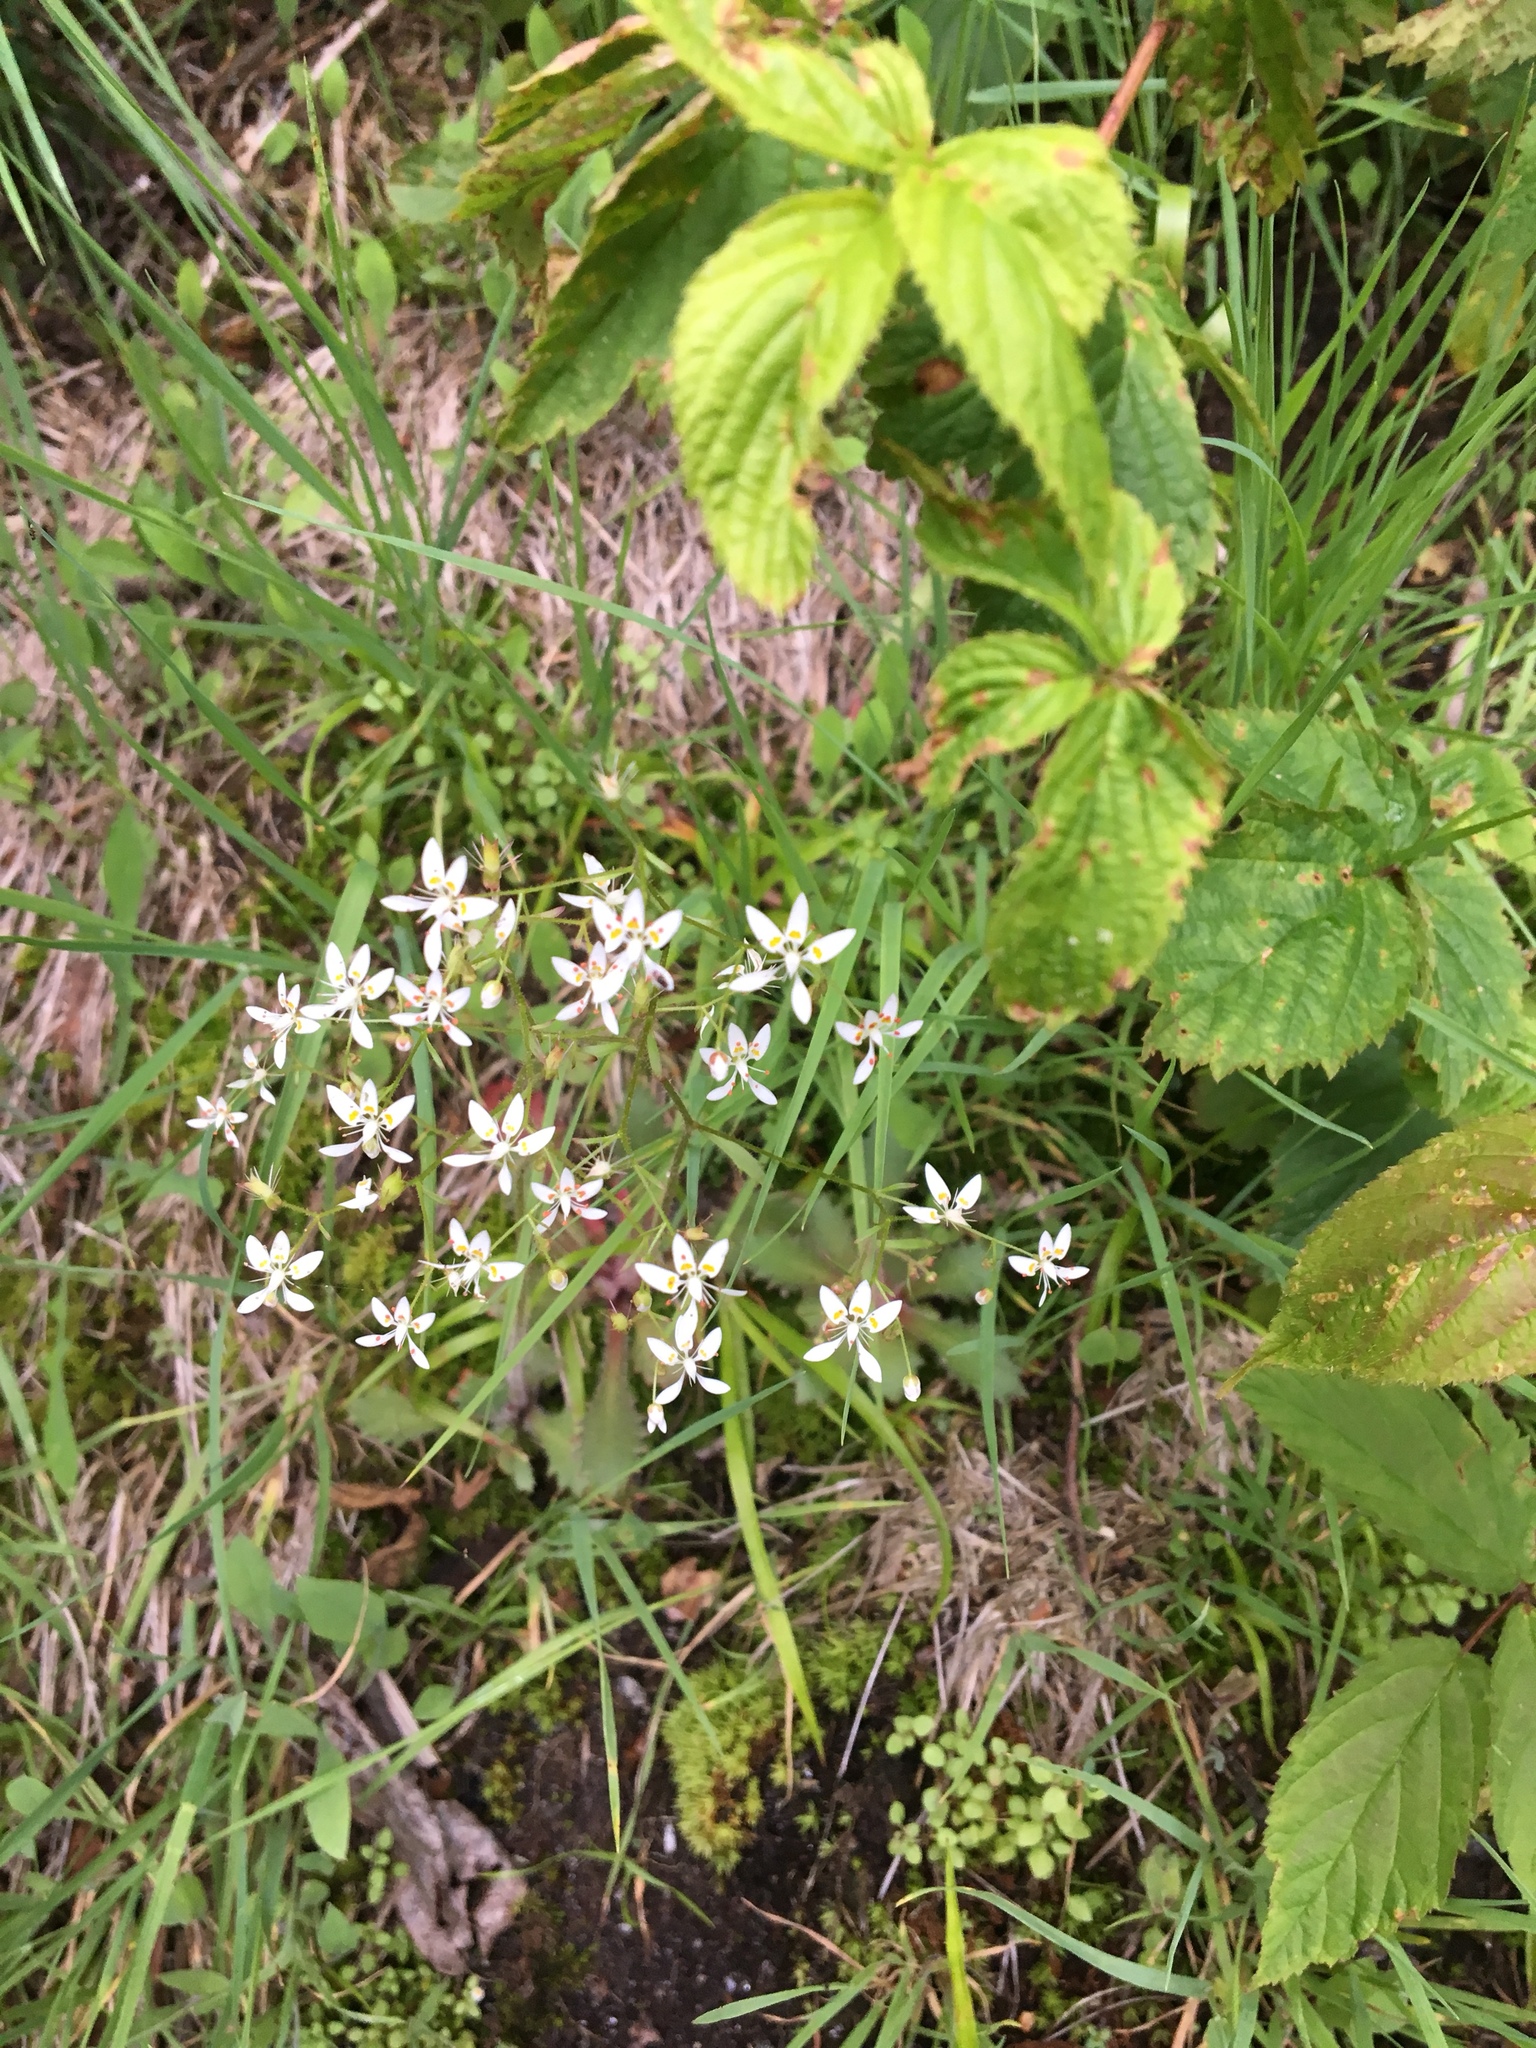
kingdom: Plantae
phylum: Tracheophyta
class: Magnoliopsida
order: Saxifragales
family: Saxifragaceae
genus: Micranthes
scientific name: Micranthes petiolaris
